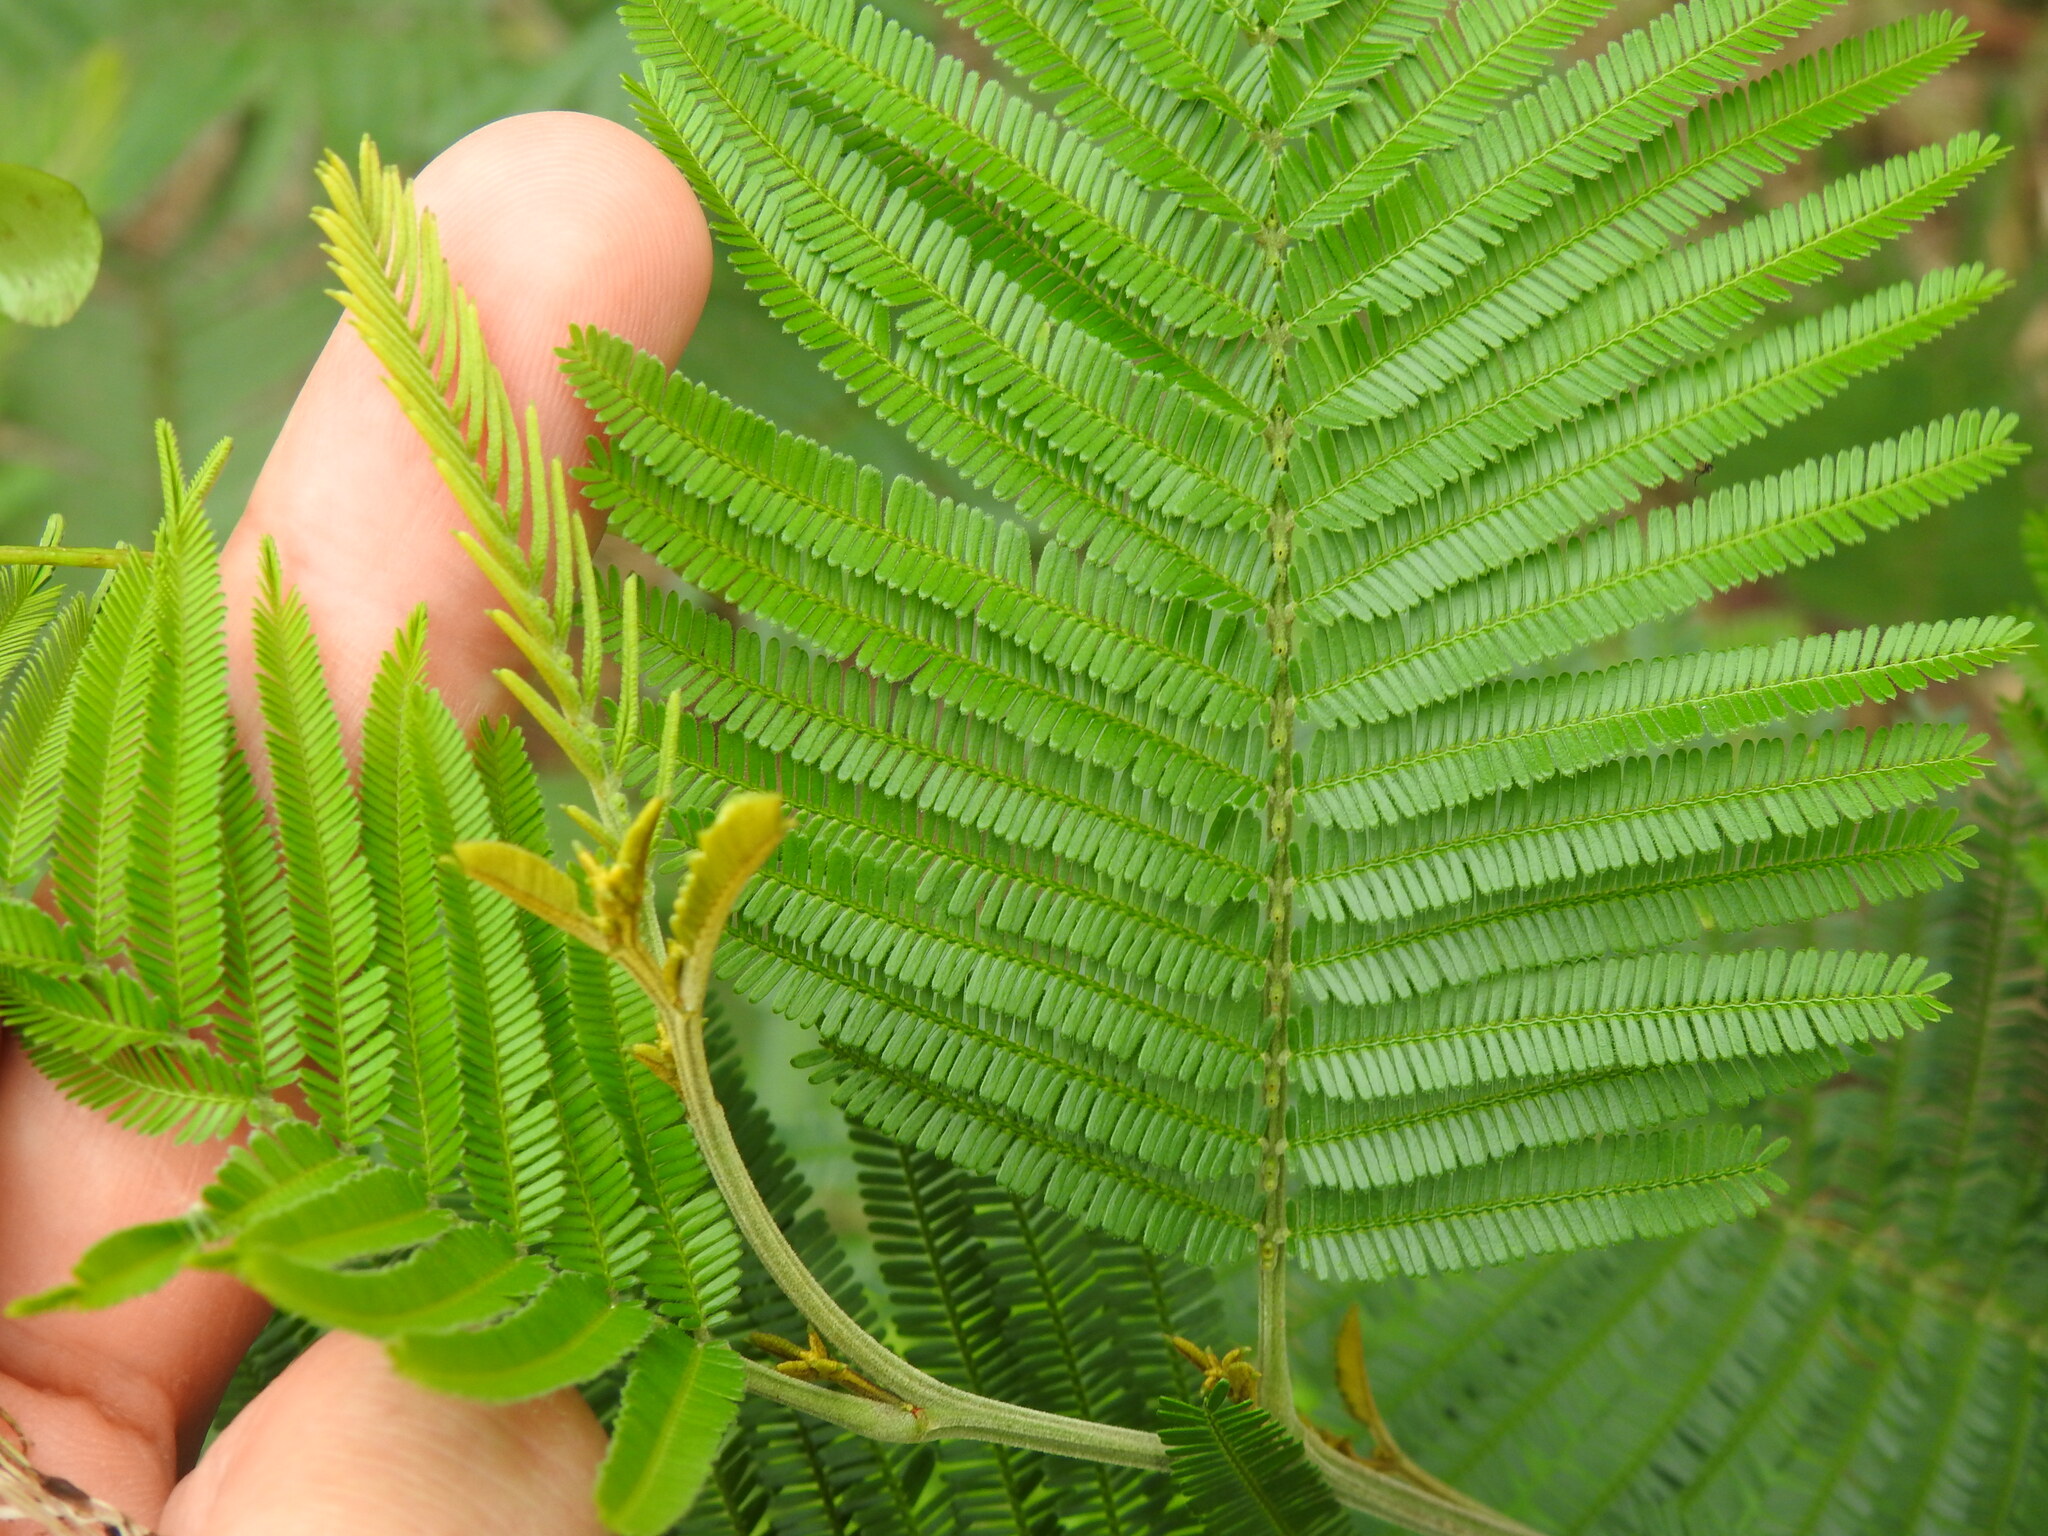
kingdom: Plantae
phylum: Tracheophyta
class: Magnoliopsida
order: Fabales
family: Fabaceae
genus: Acacia
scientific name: Acacia mearnsii
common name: Black wattle
